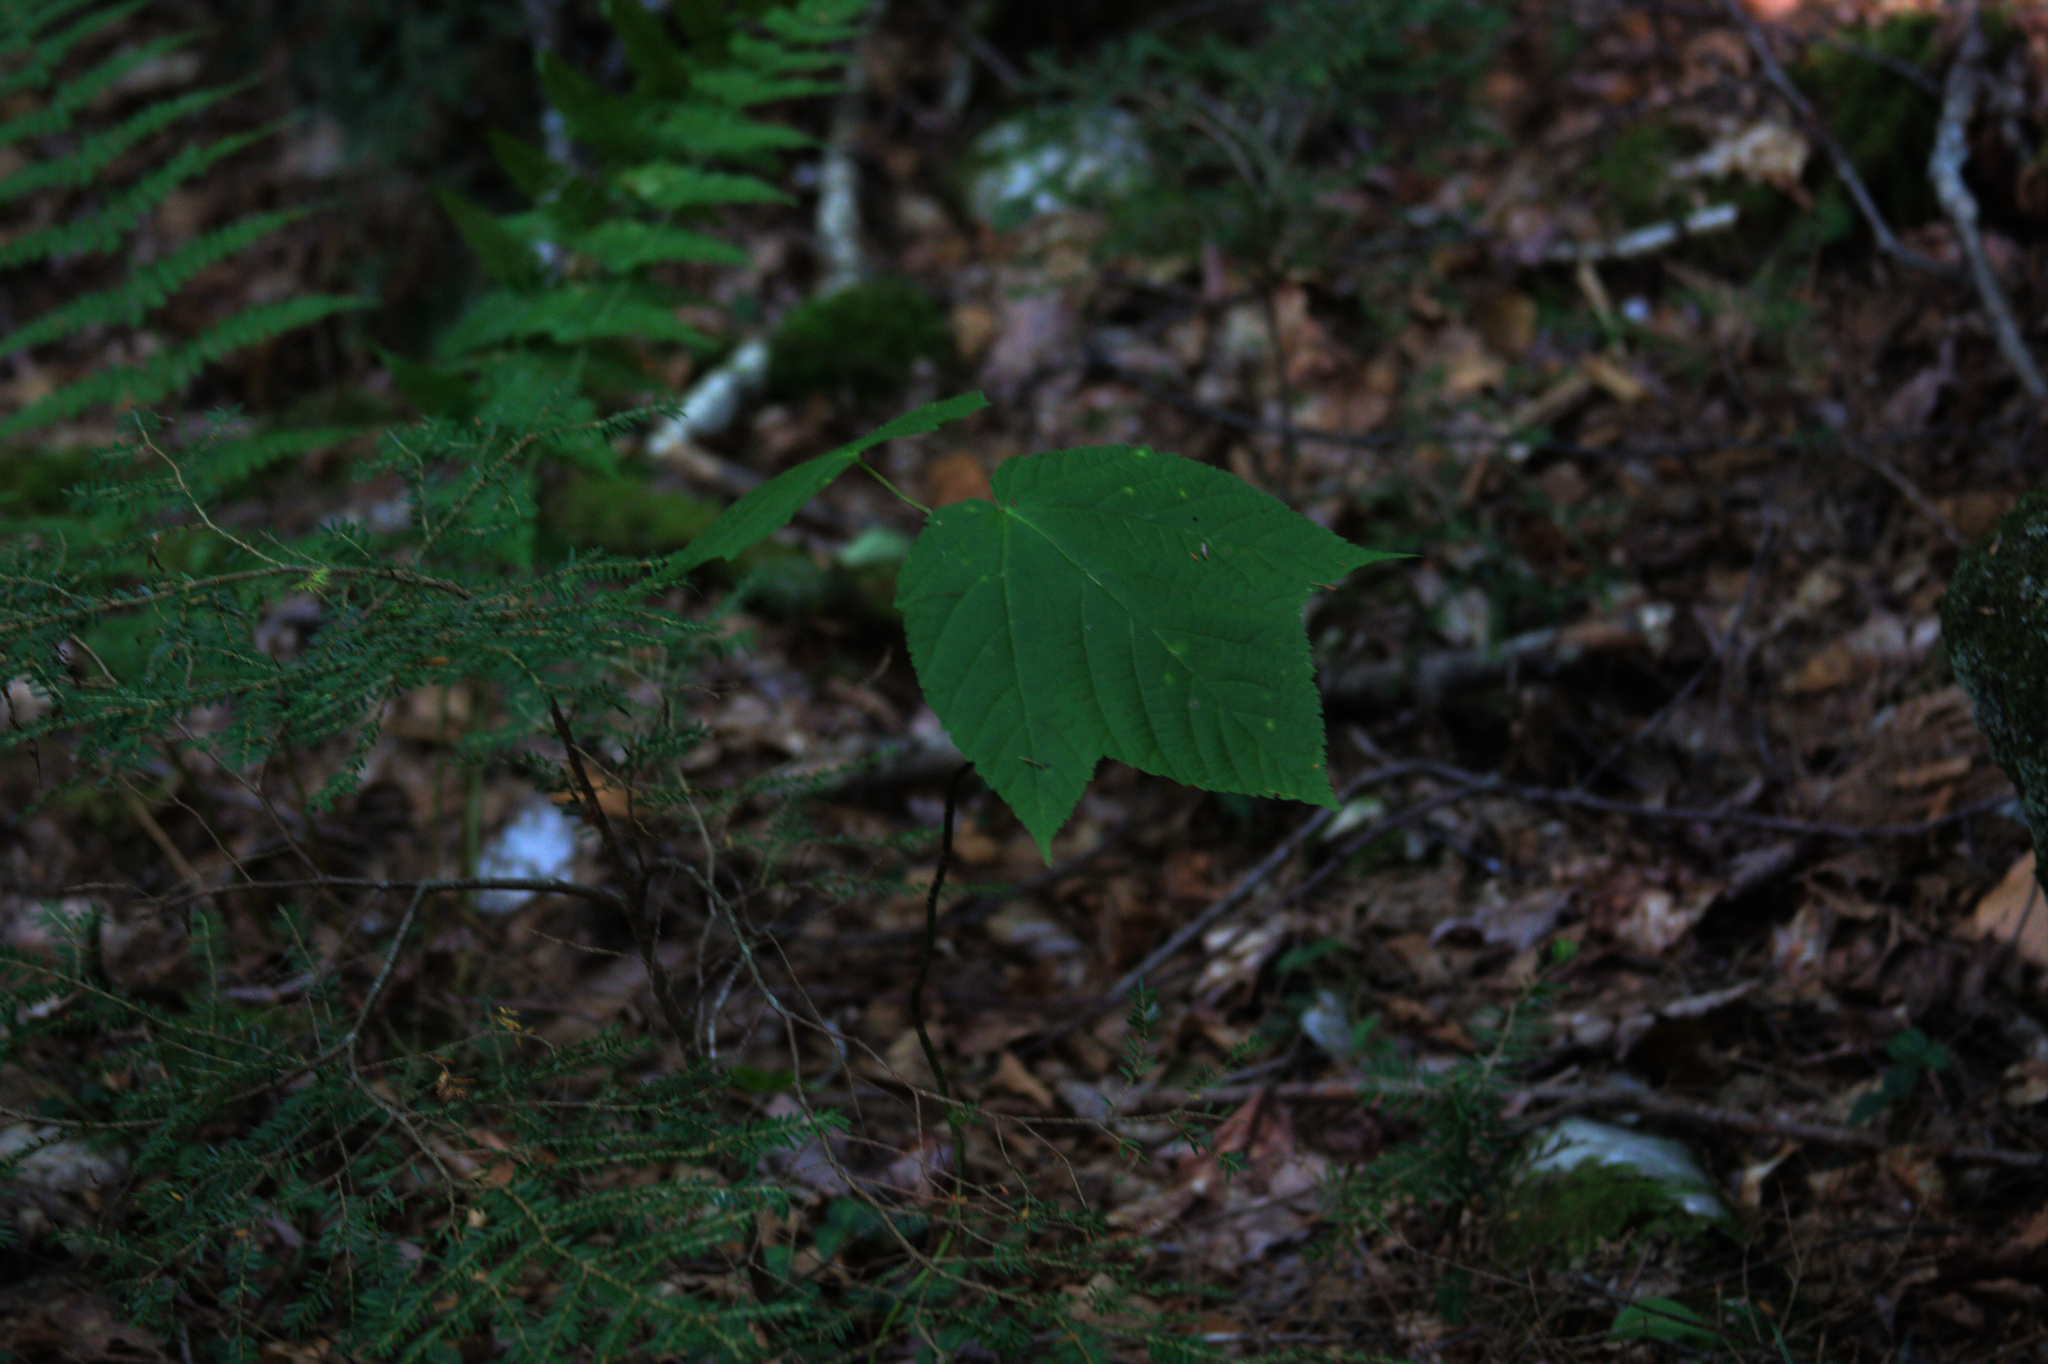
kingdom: Plantae
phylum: Tracheophyta
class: Magnoliopsida
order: Sapindales
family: Sapindaceae
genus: Acer
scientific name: Acer pensylvanicum
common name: Moosewood
